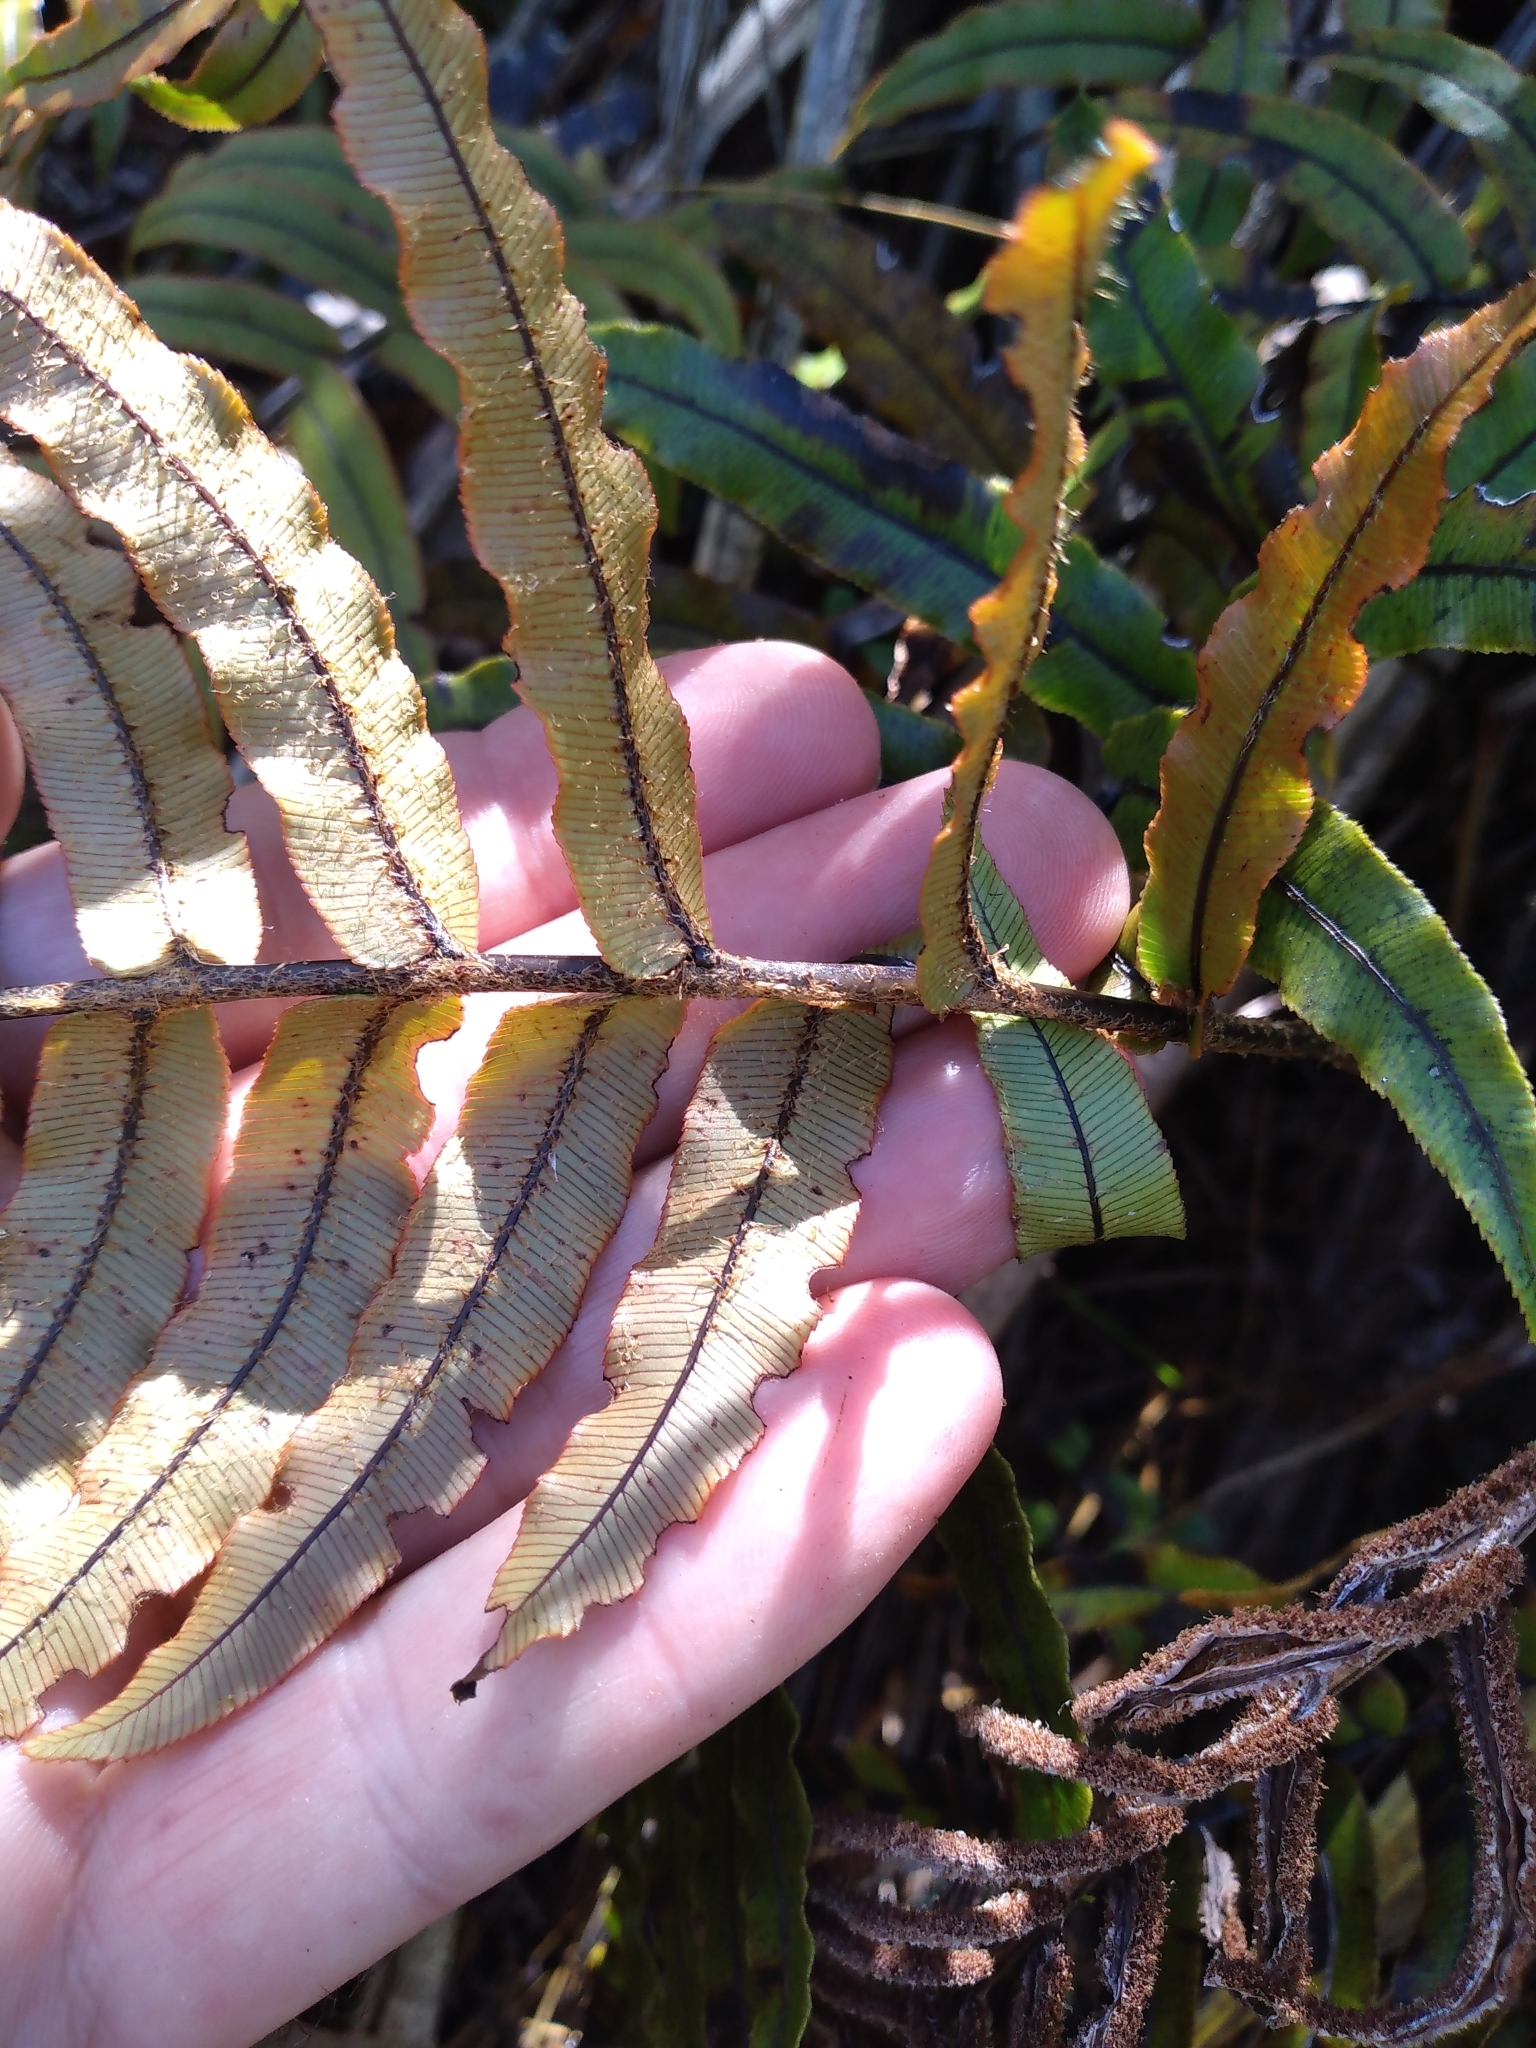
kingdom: Plantae
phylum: Tracheophyta
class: Polypodiopsida
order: Polypodiales
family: Blechnaceae
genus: Parablechnum
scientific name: Parablechnum montanum
